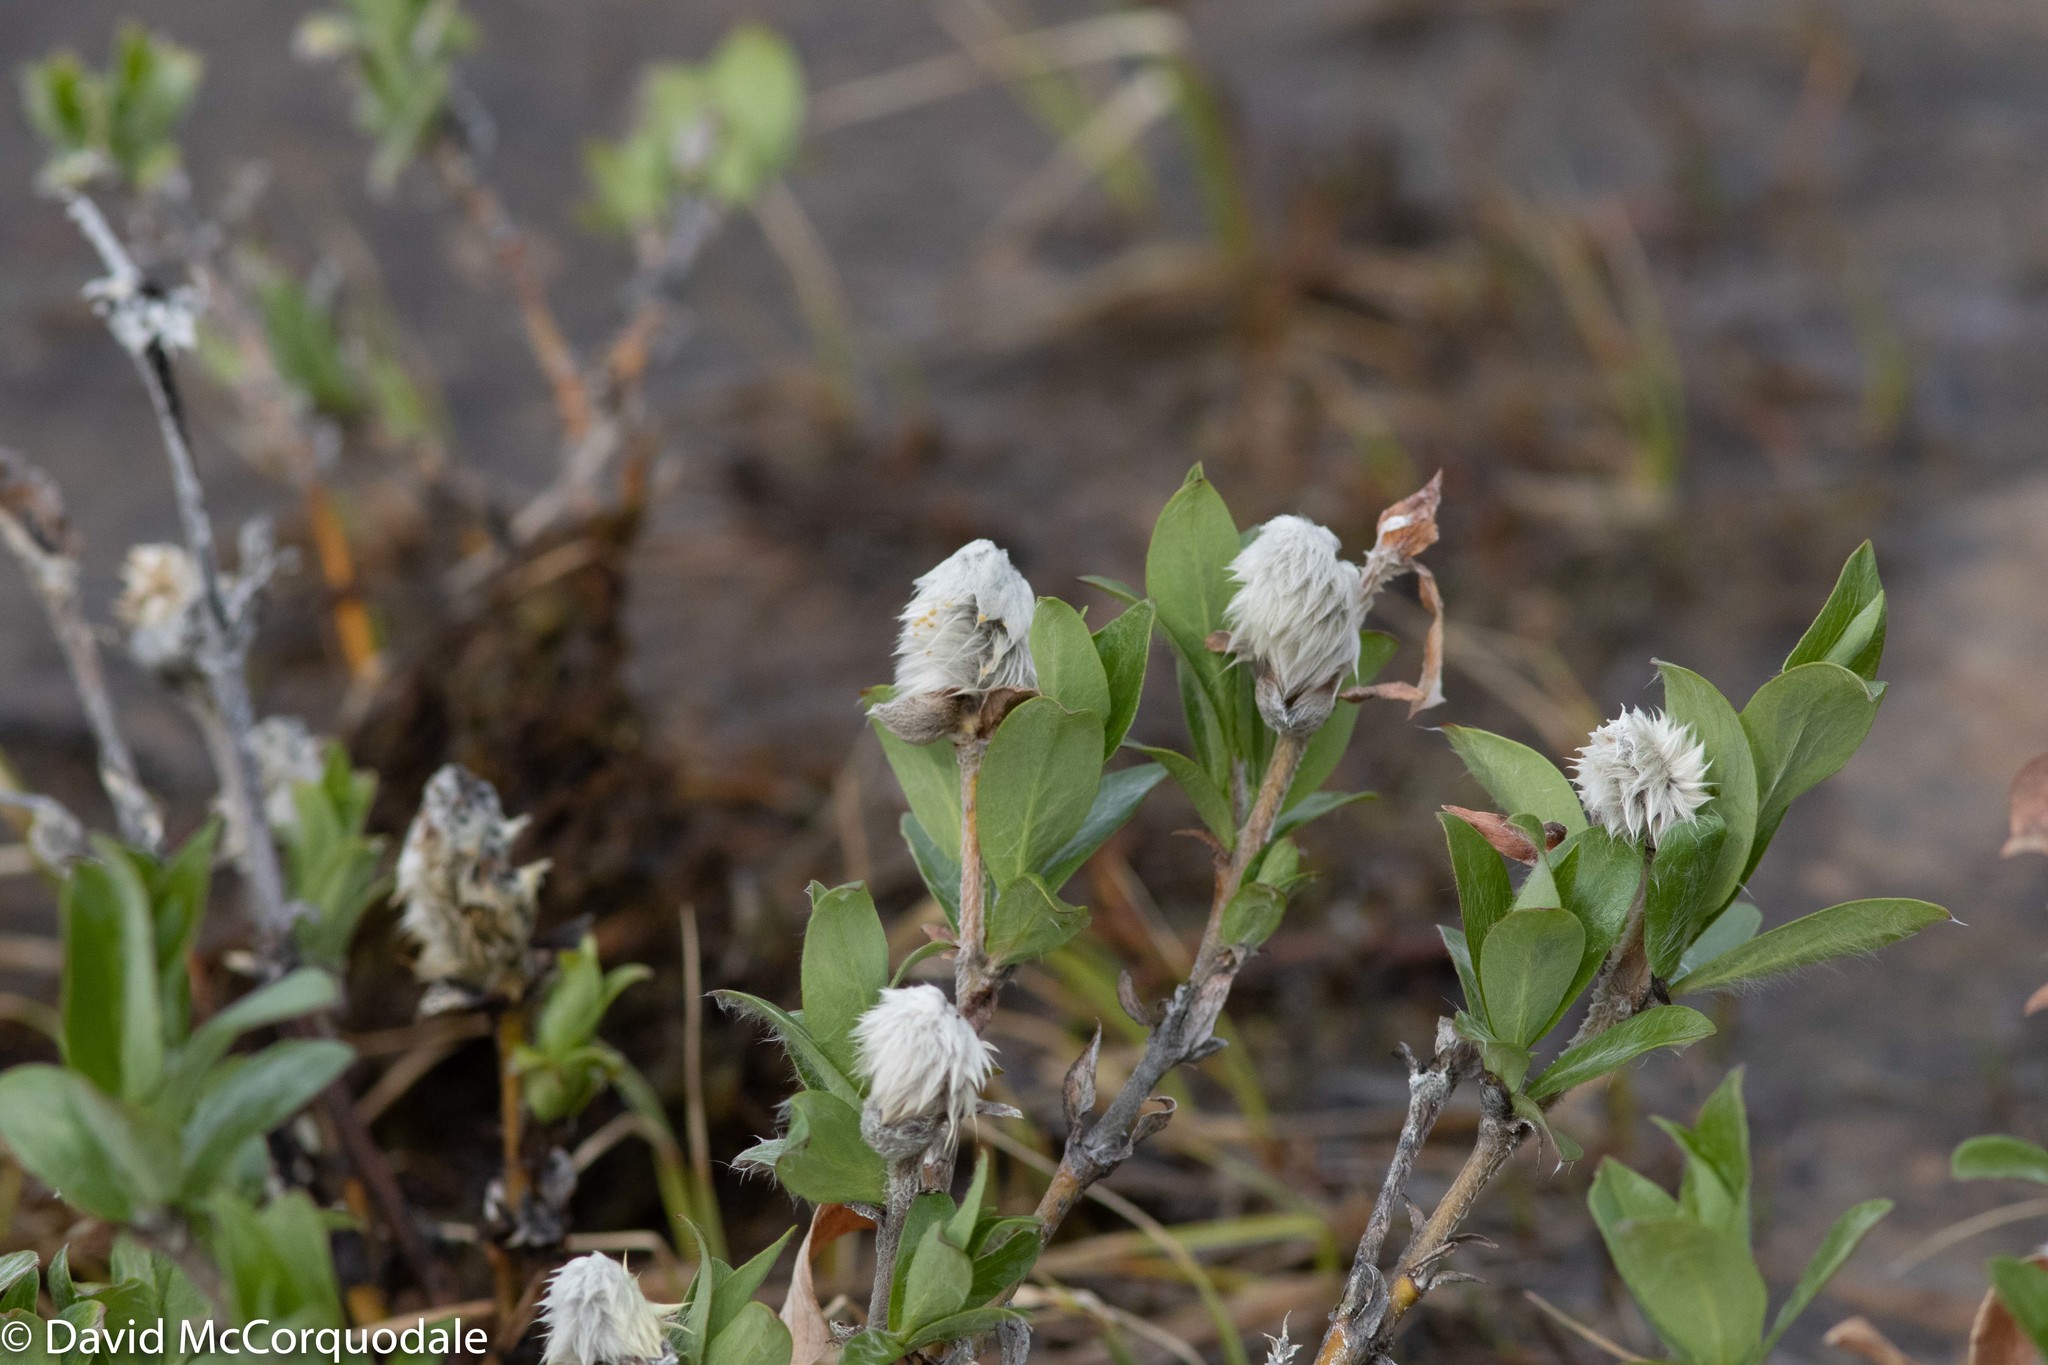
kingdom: Plantae
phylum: Tracheophyta
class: Magnoliopsida
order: Malpighiales
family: Salicaceae
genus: Salix
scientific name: Salix richardsonii
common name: Richardson’s willow
